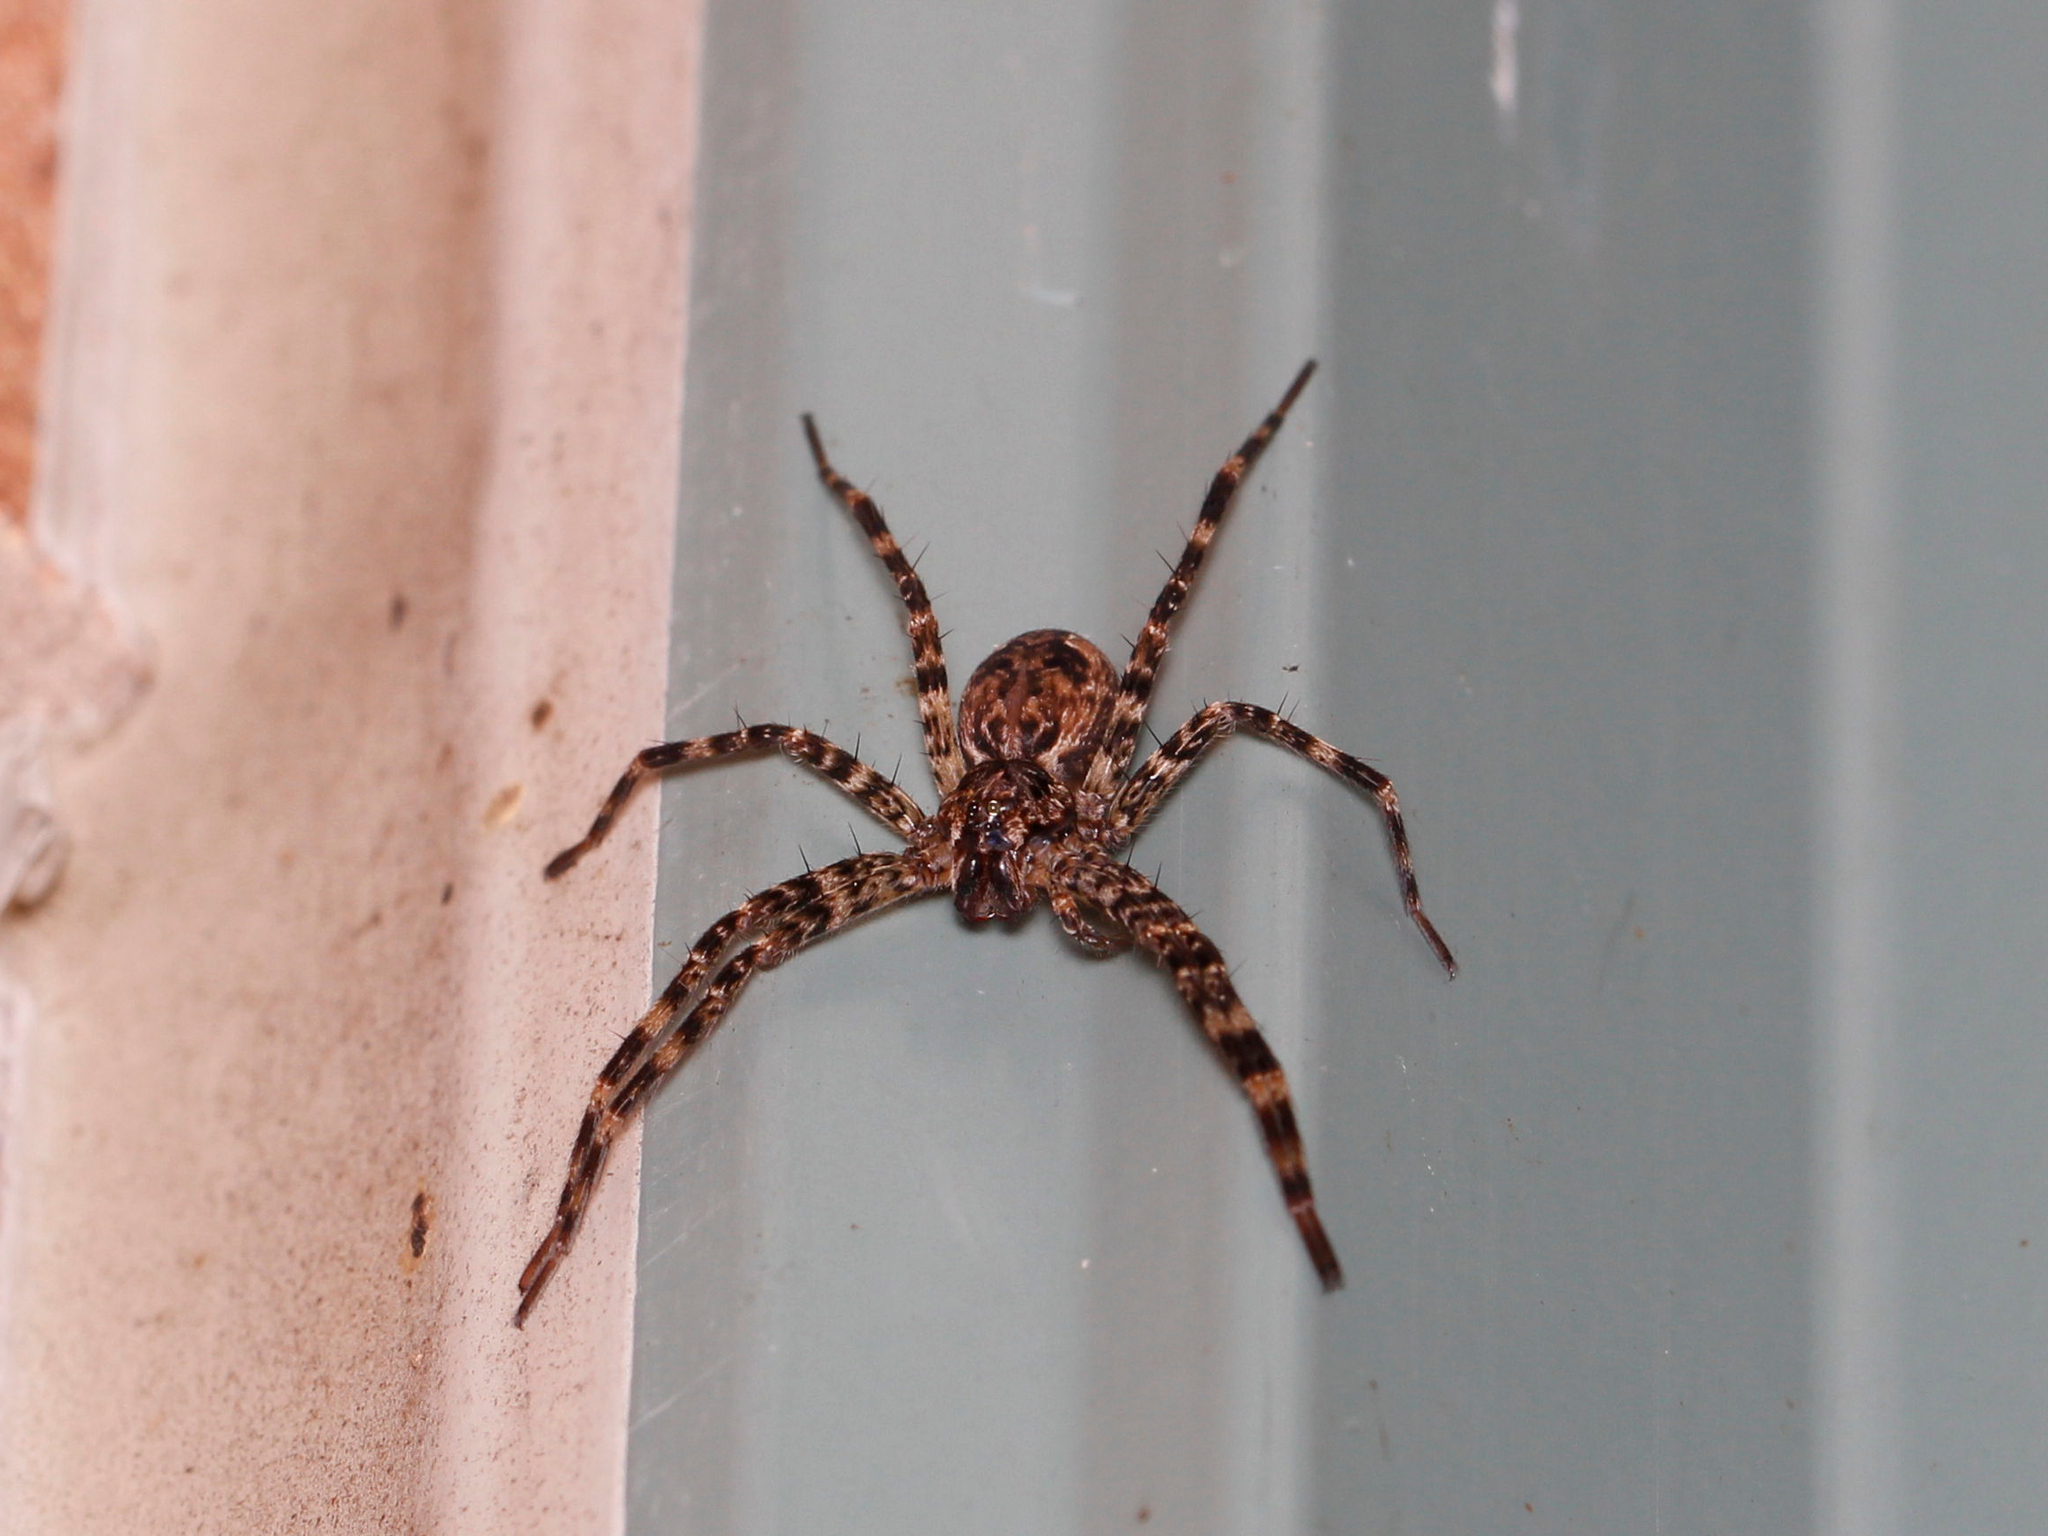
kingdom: Animalia
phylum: Arthropoda
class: Arachnida
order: Araneae
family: Pisauridae
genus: Dolomedes
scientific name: Dolomedes tenebrosus
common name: Dark fishing spider
